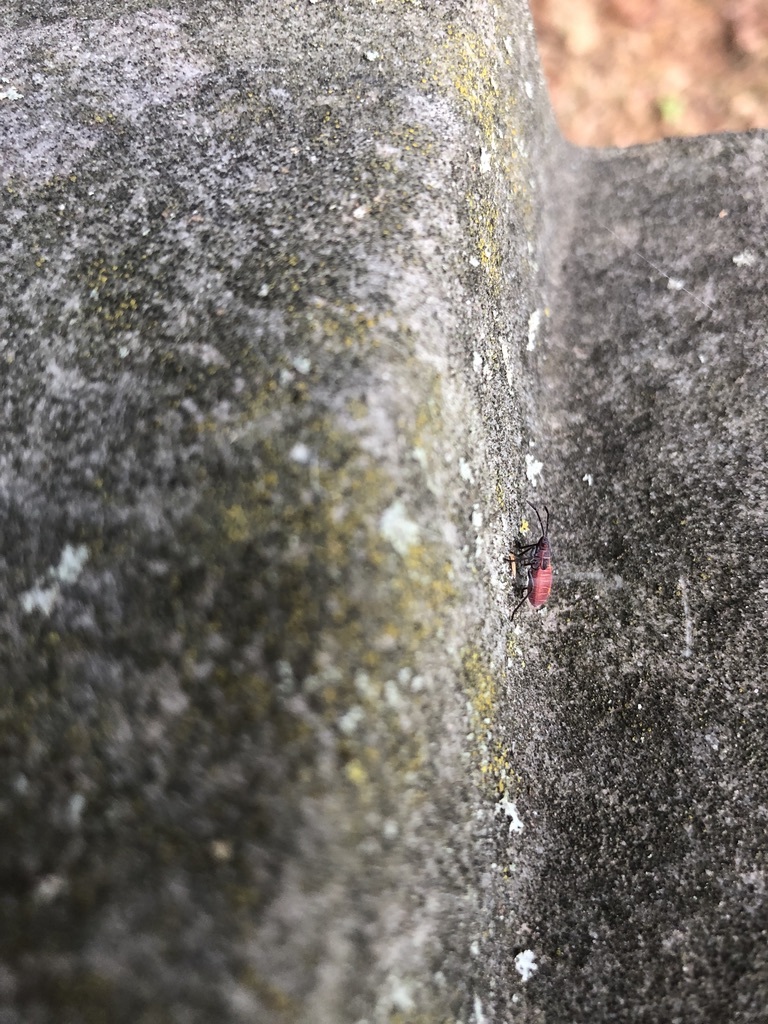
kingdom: Animalia
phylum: Arthropoda
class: Insecta
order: Hemiptera
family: Rhopalidae
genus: Boisea
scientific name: Boisea rubrolineata
